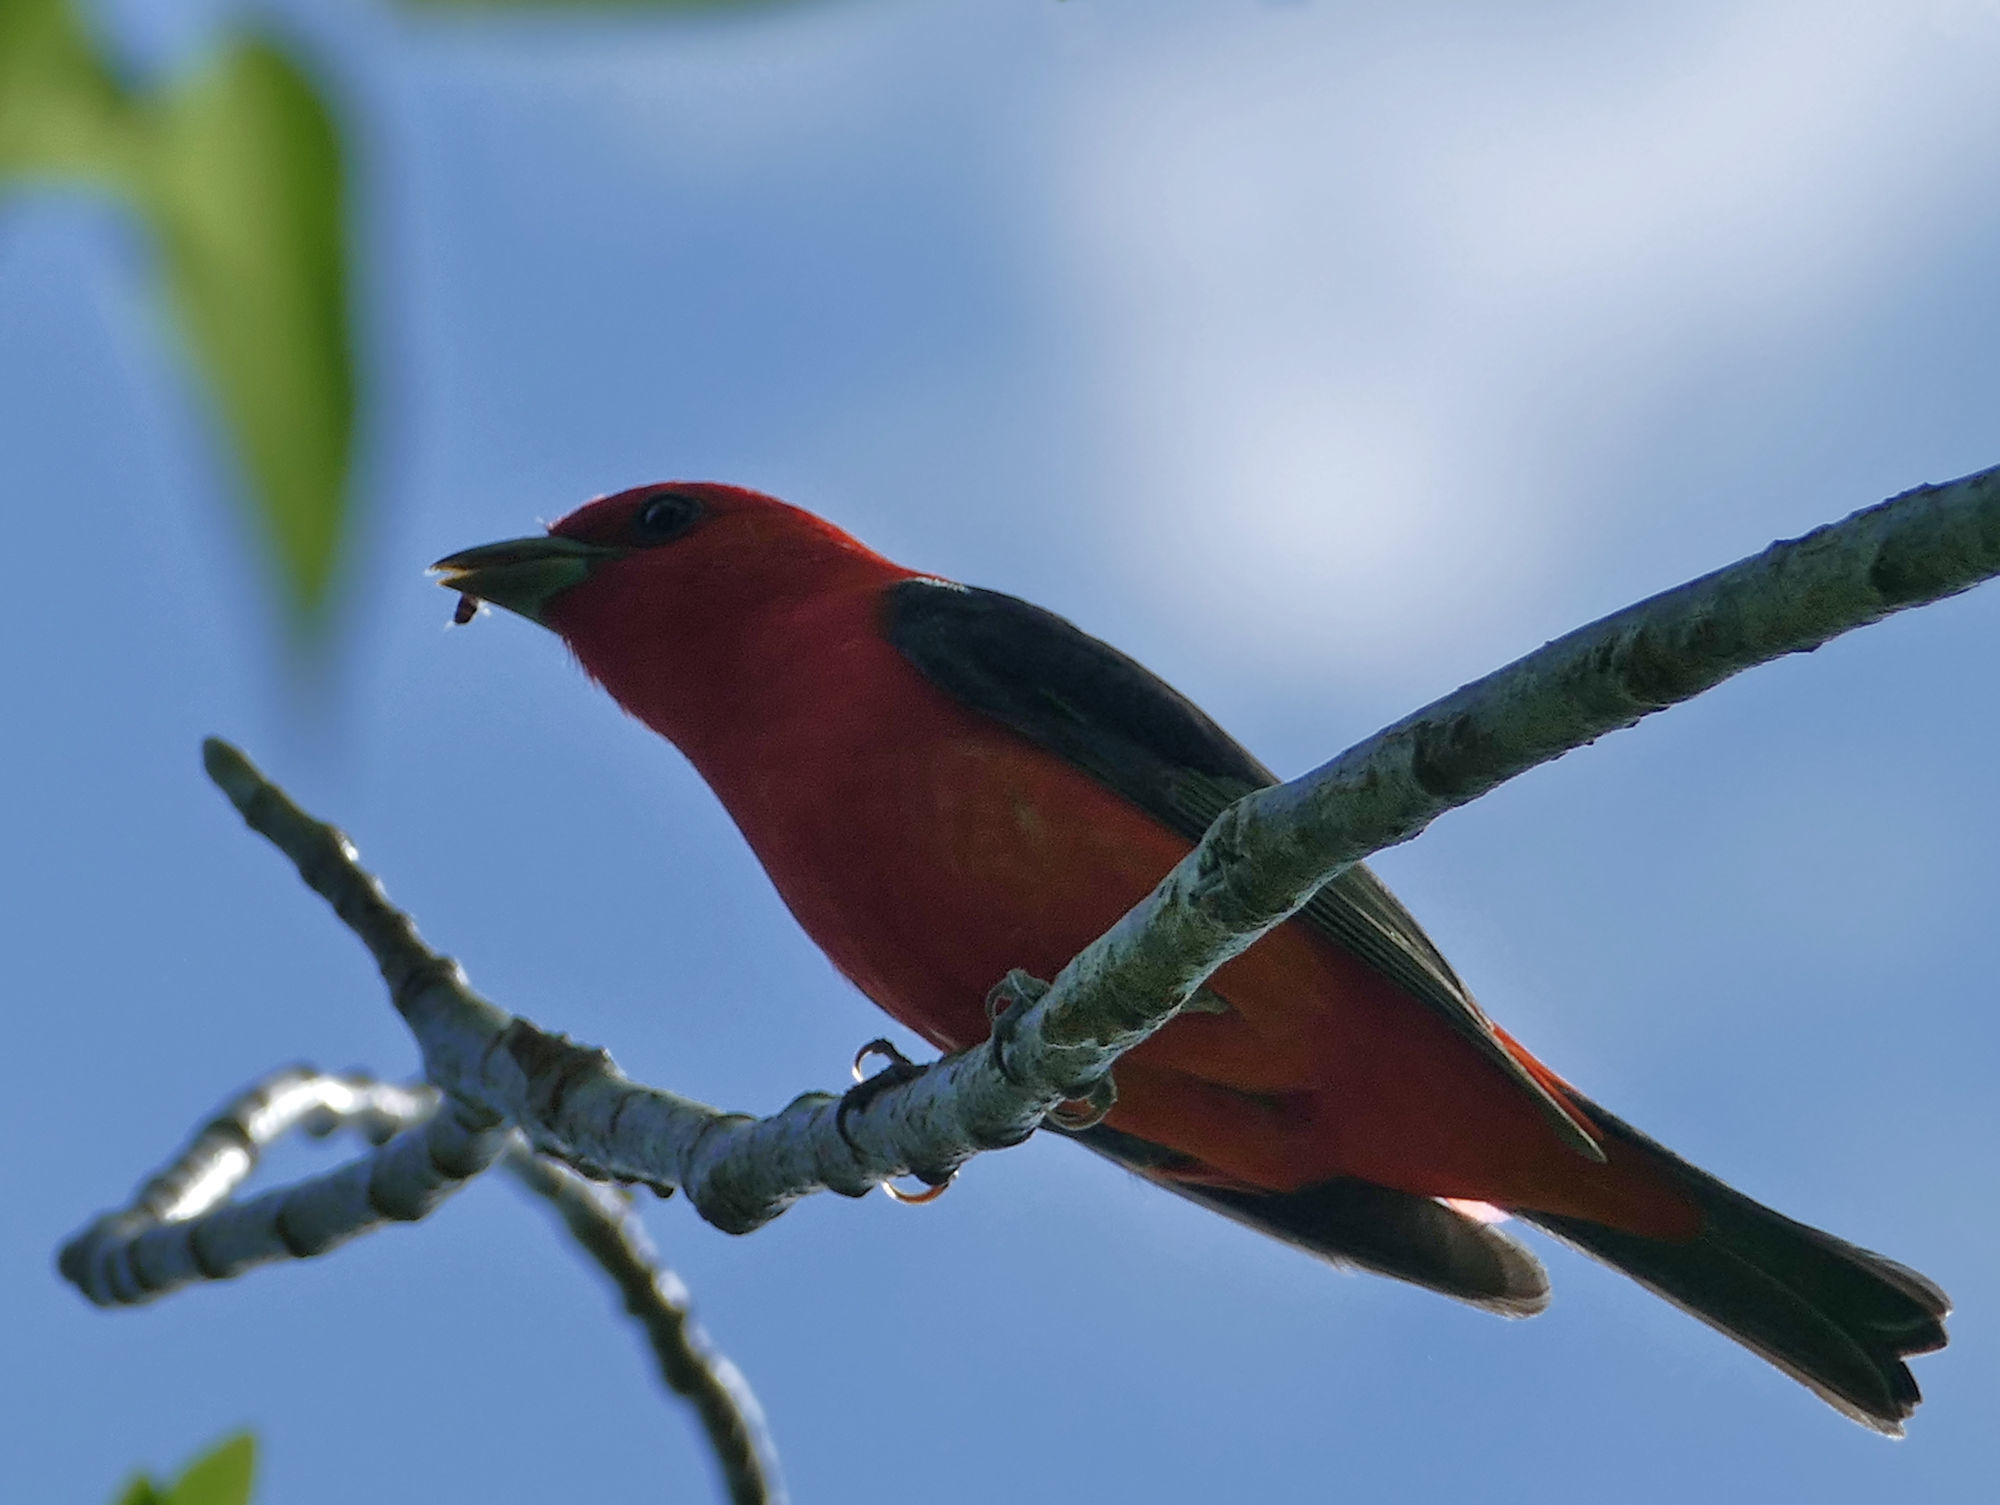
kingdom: Animalia
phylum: Chordata
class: Aves
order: Passeriformes
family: Cardinalidae
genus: Piranga
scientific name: Piranga olivacea
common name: Scarlet tanager
